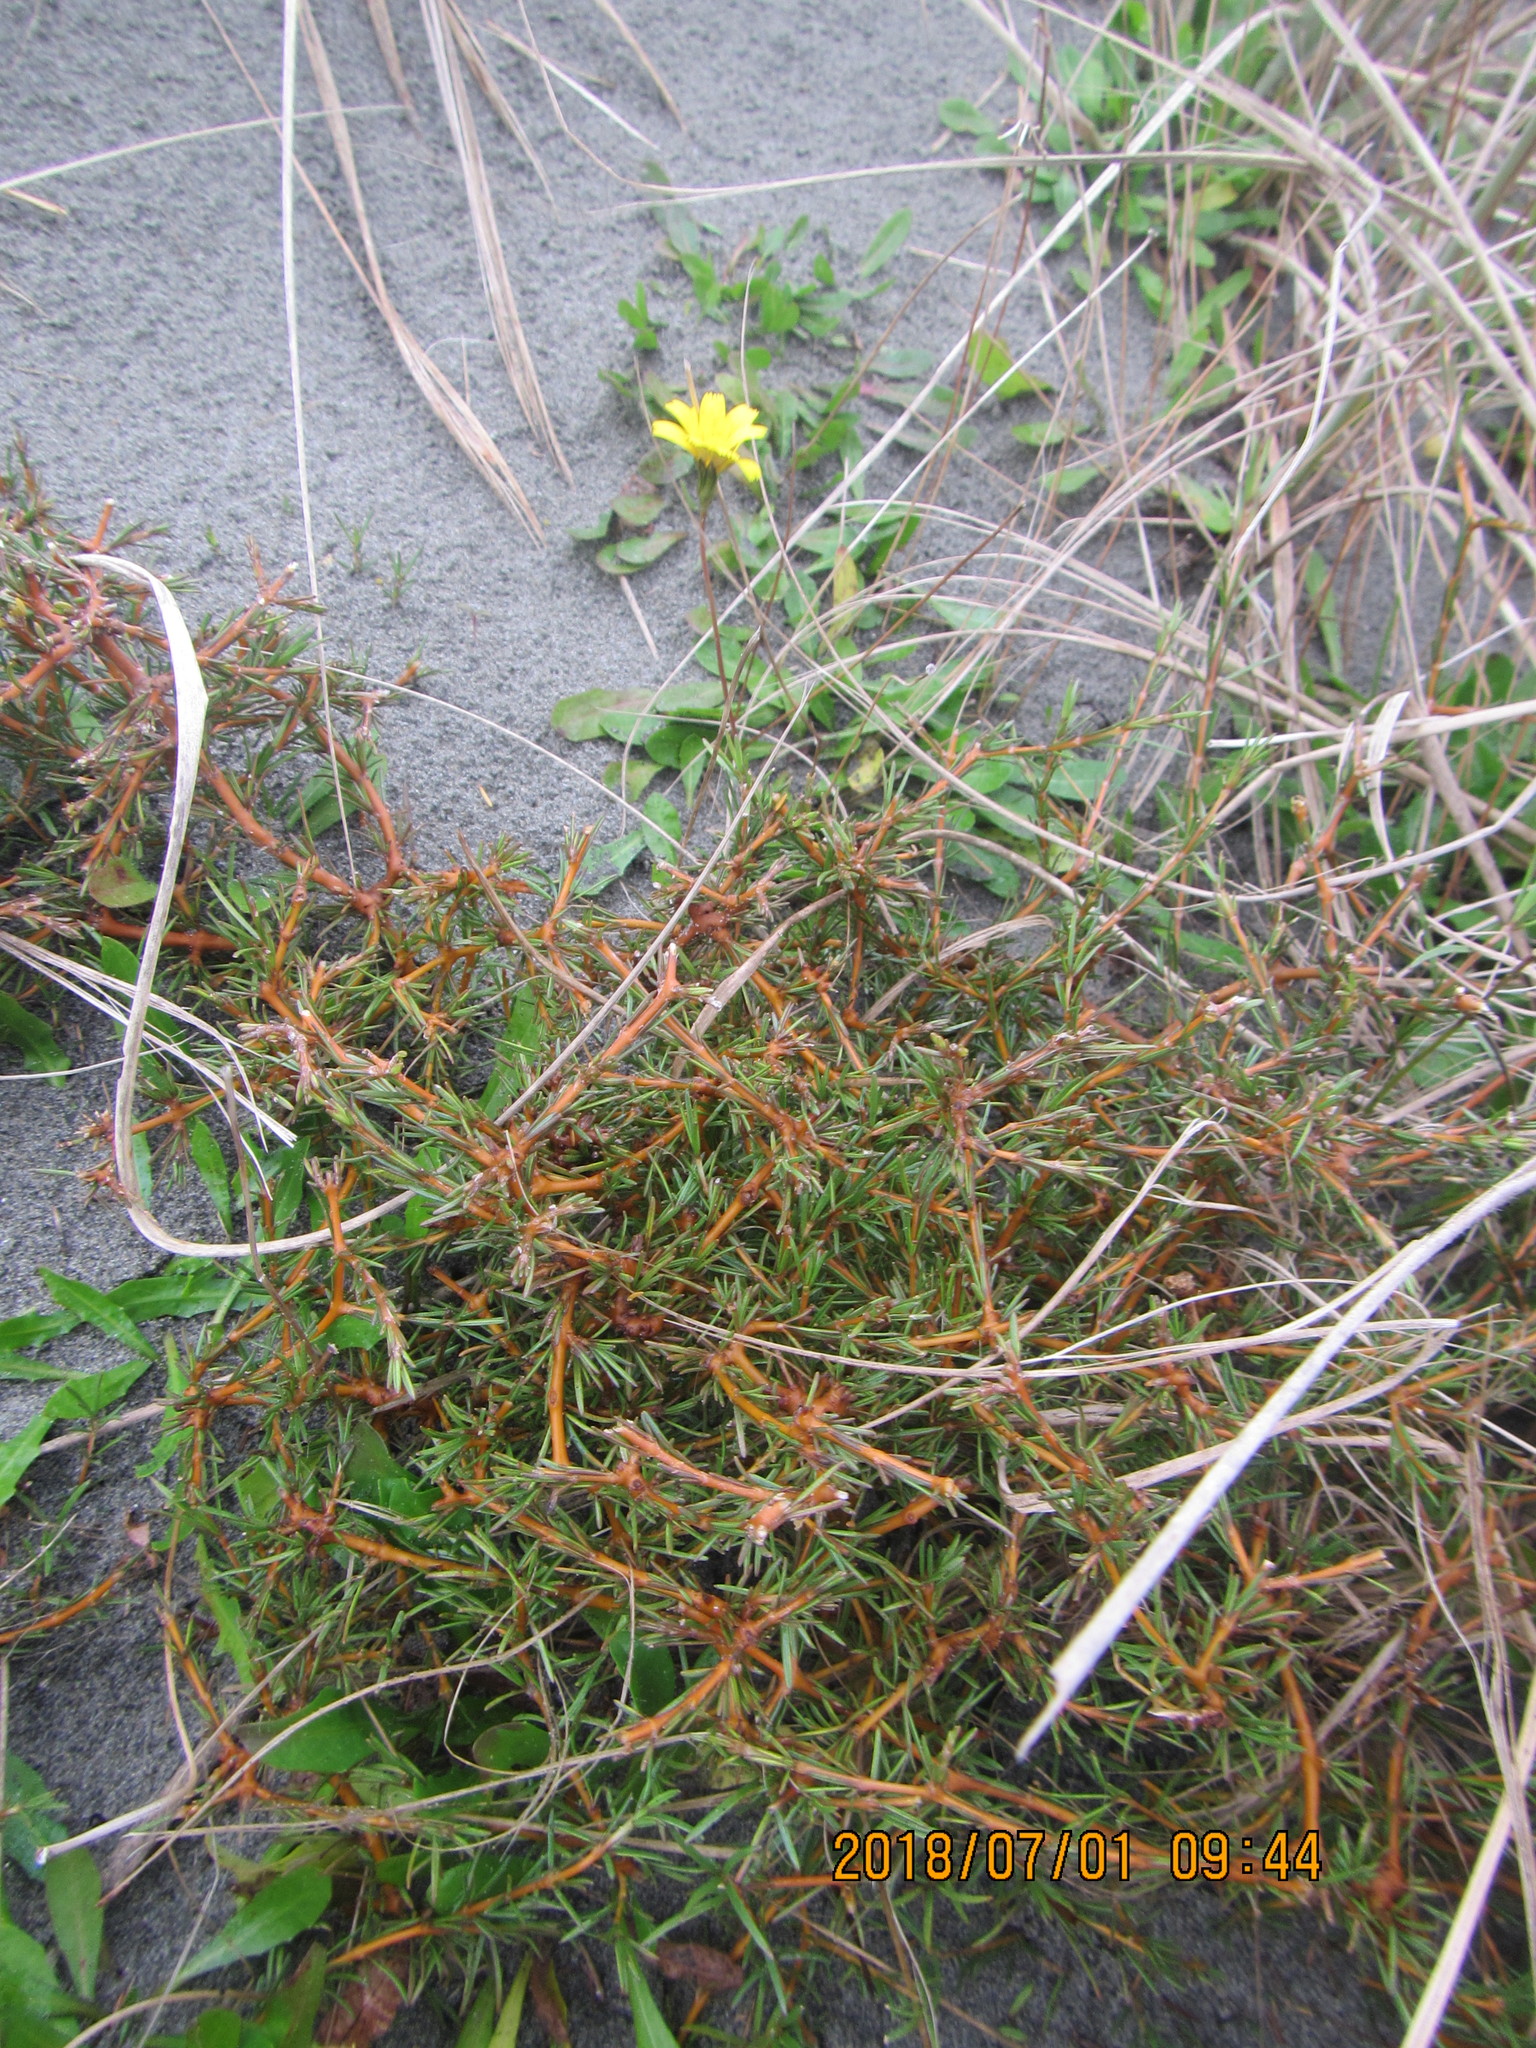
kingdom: Plantae
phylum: Tracheophyta
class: Magnoliopsida
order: Asterales
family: Asteraceae
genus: Hypochaeris
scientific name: Hypochaeris radicata
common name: Flatweed
